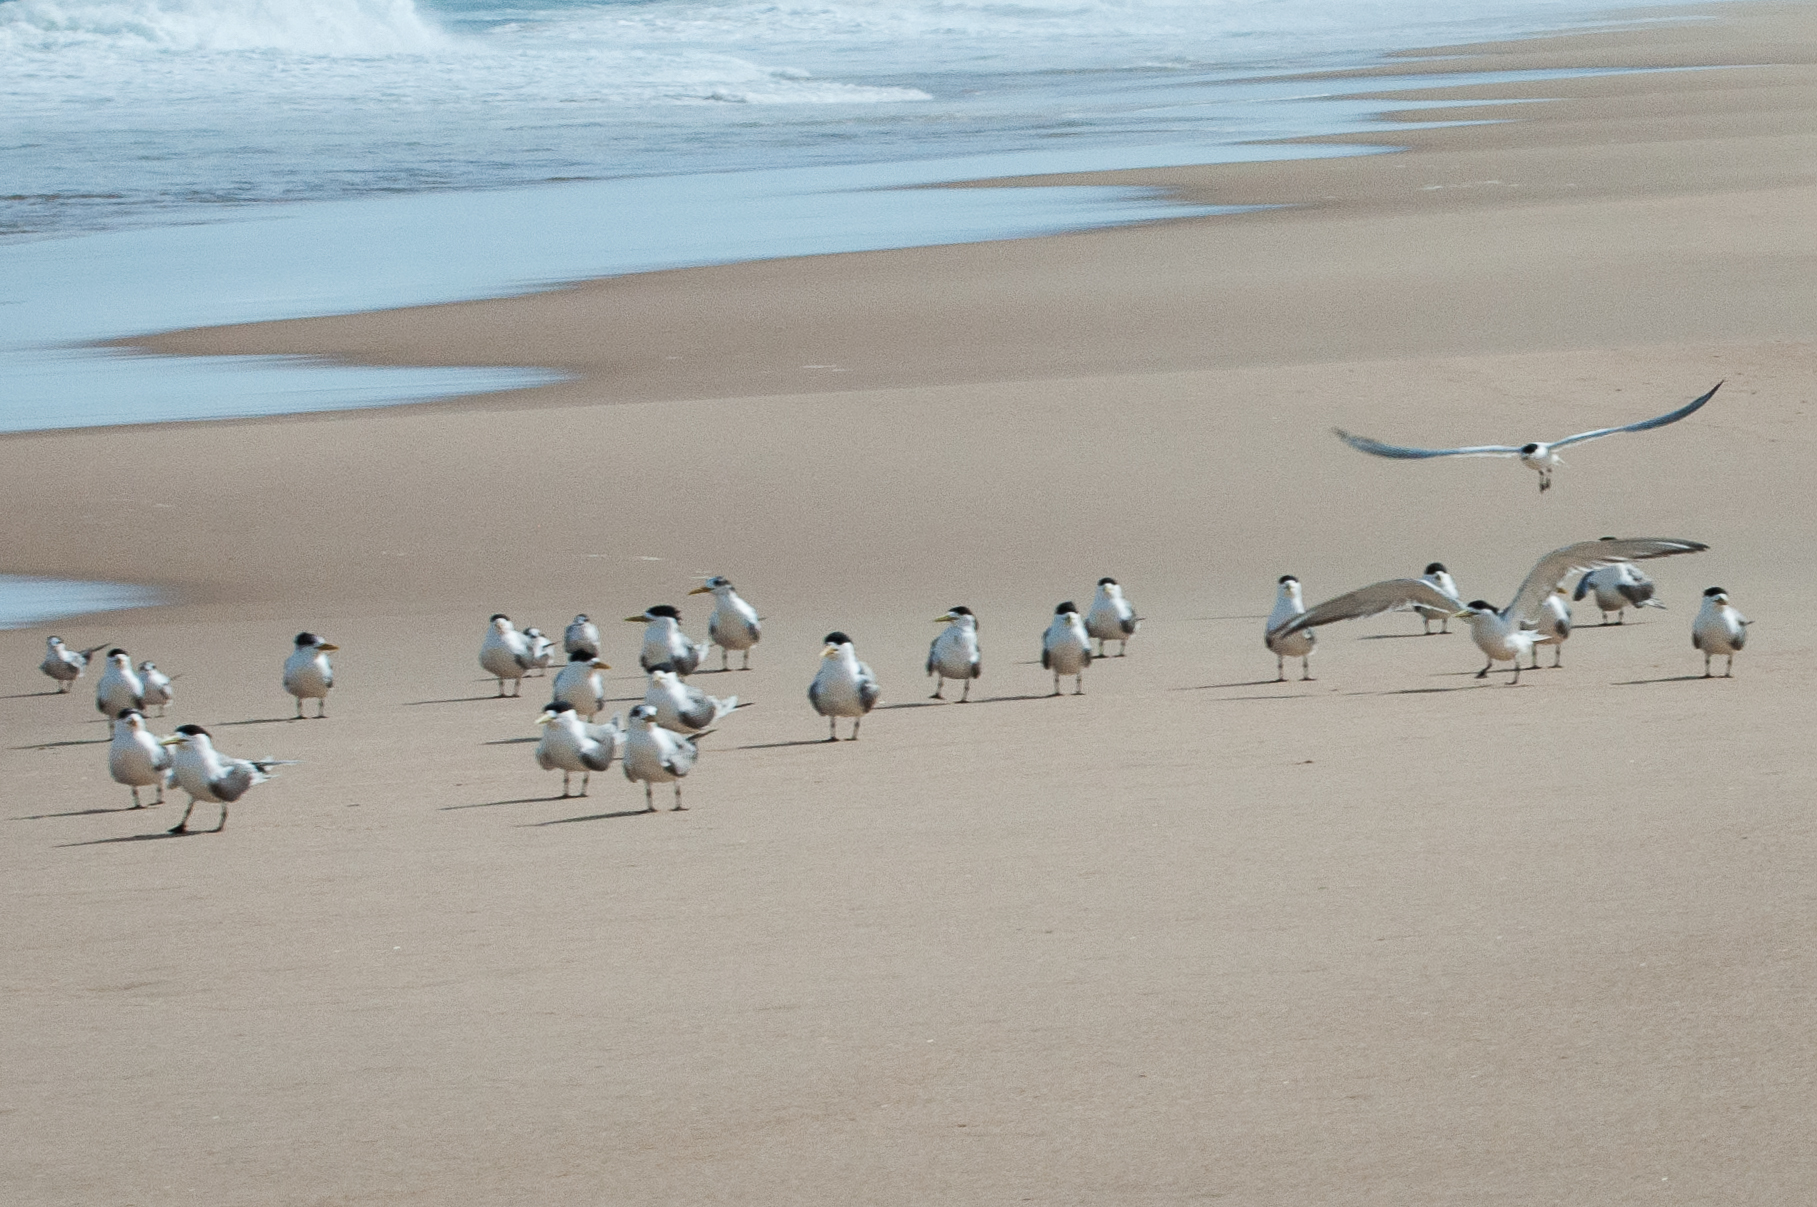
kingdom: Animalia
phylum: Chordata
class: Aves
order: Charadriiformes
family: Laridae
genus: Thalasseus
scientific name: Thalasseus bergii
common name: Greater crested tern
